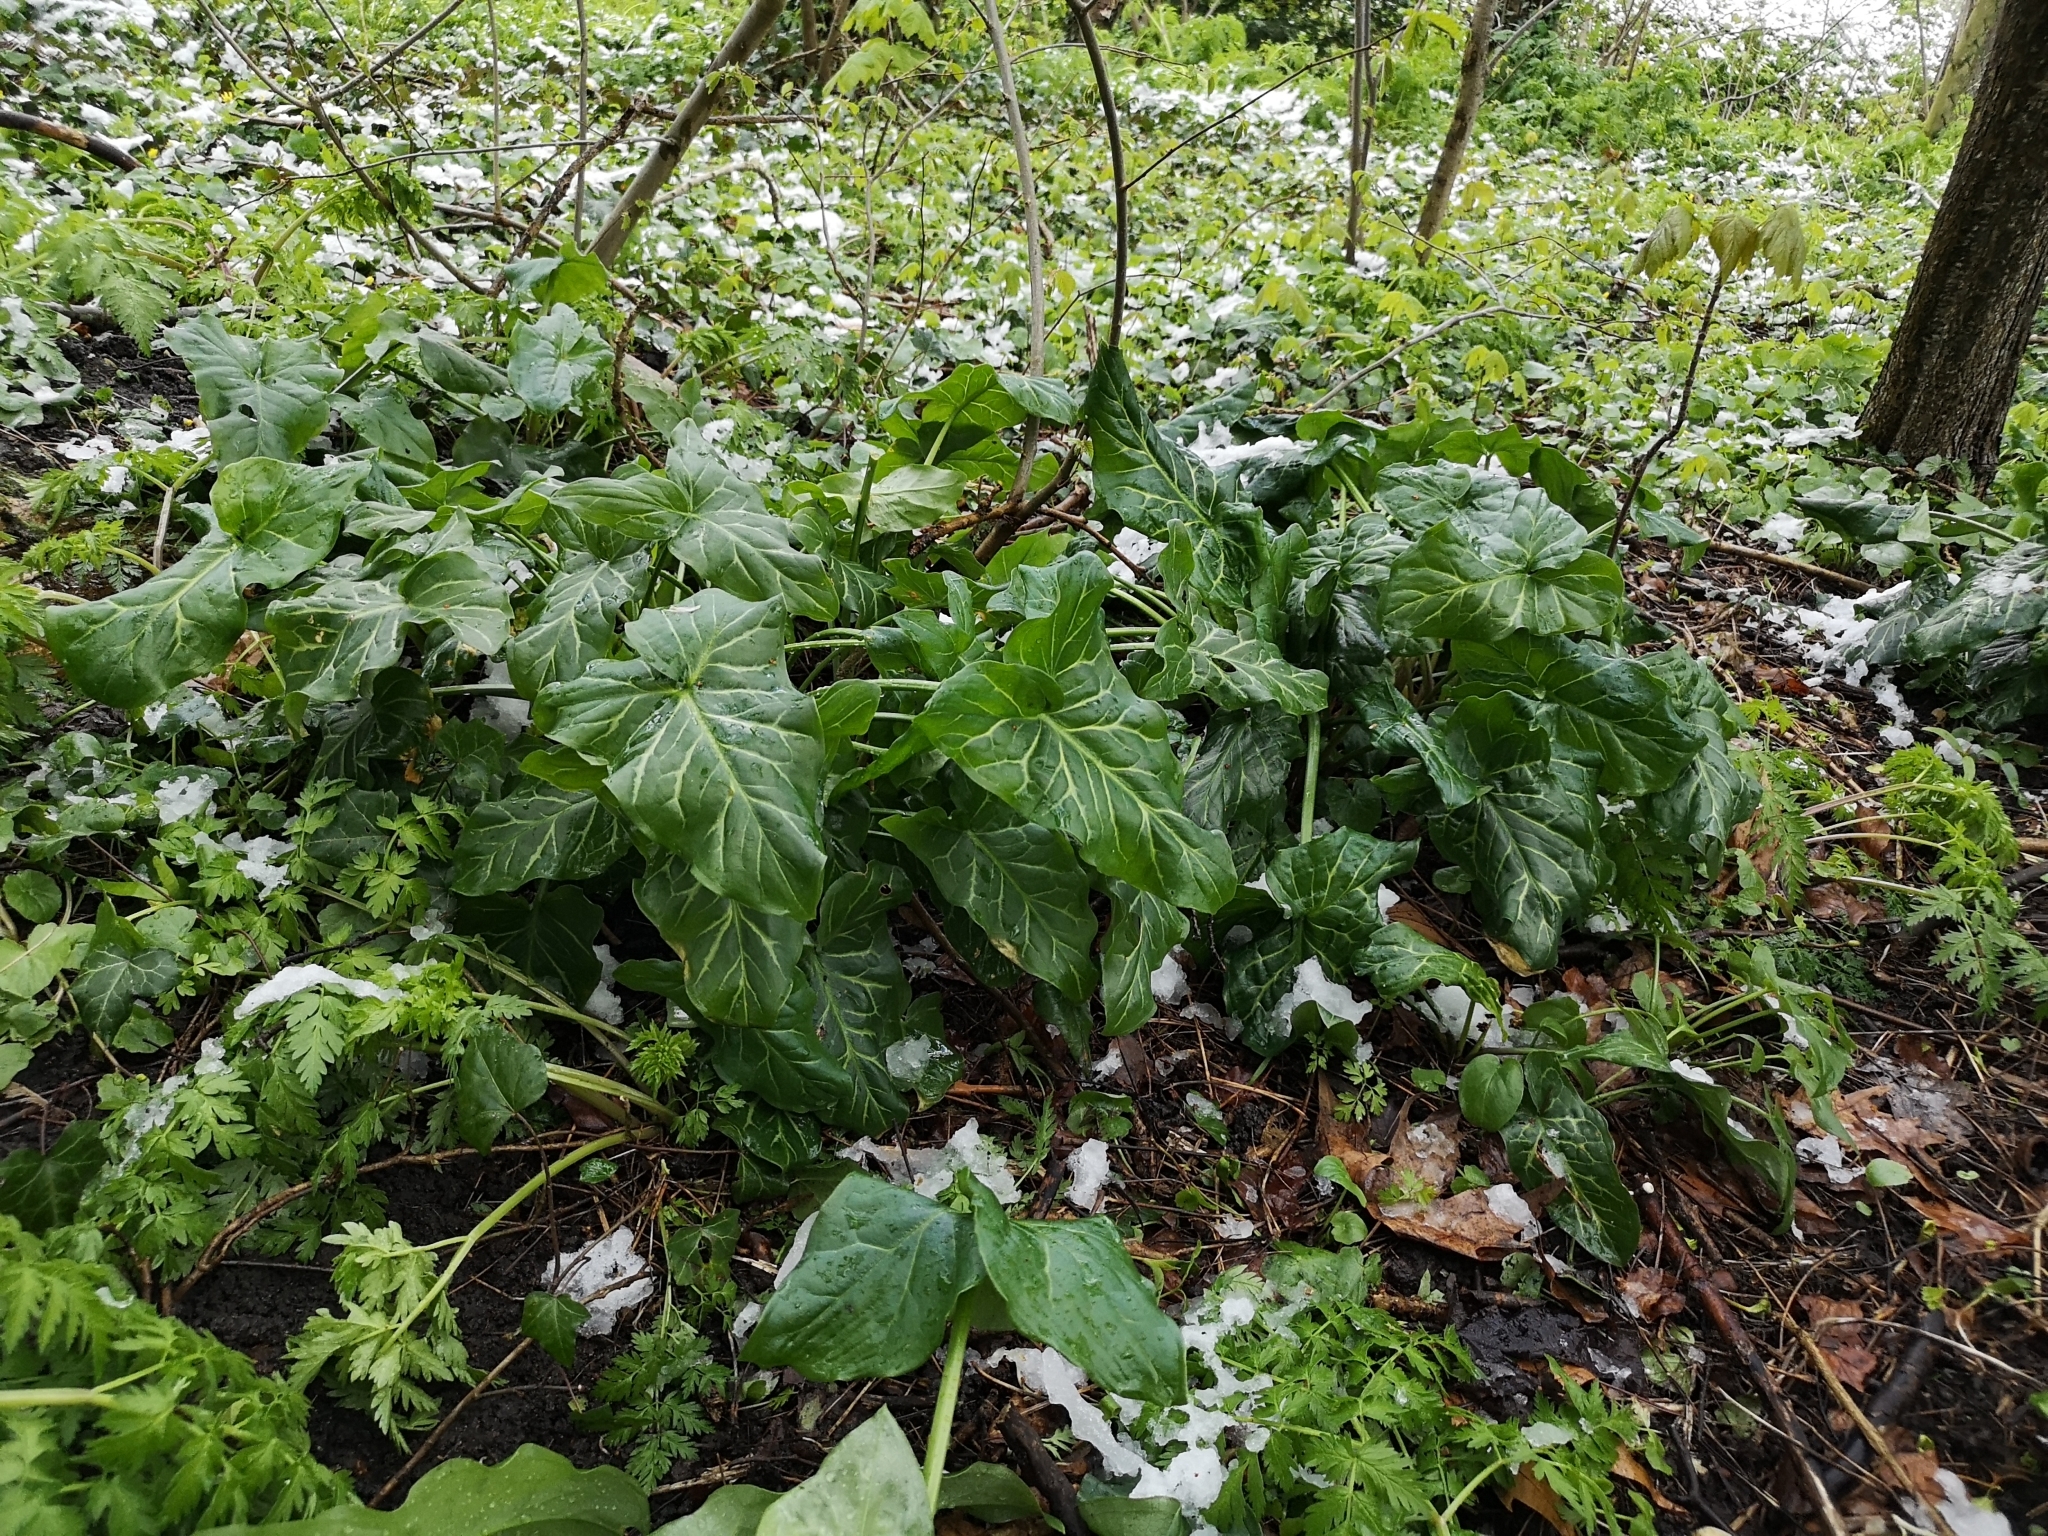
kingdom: Plantae
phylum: Tracheophyta
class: Liliopsida
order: Alismatales
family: Araceae
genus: Arum
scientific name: Arum italicum
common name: Italian lords-and-ladies
